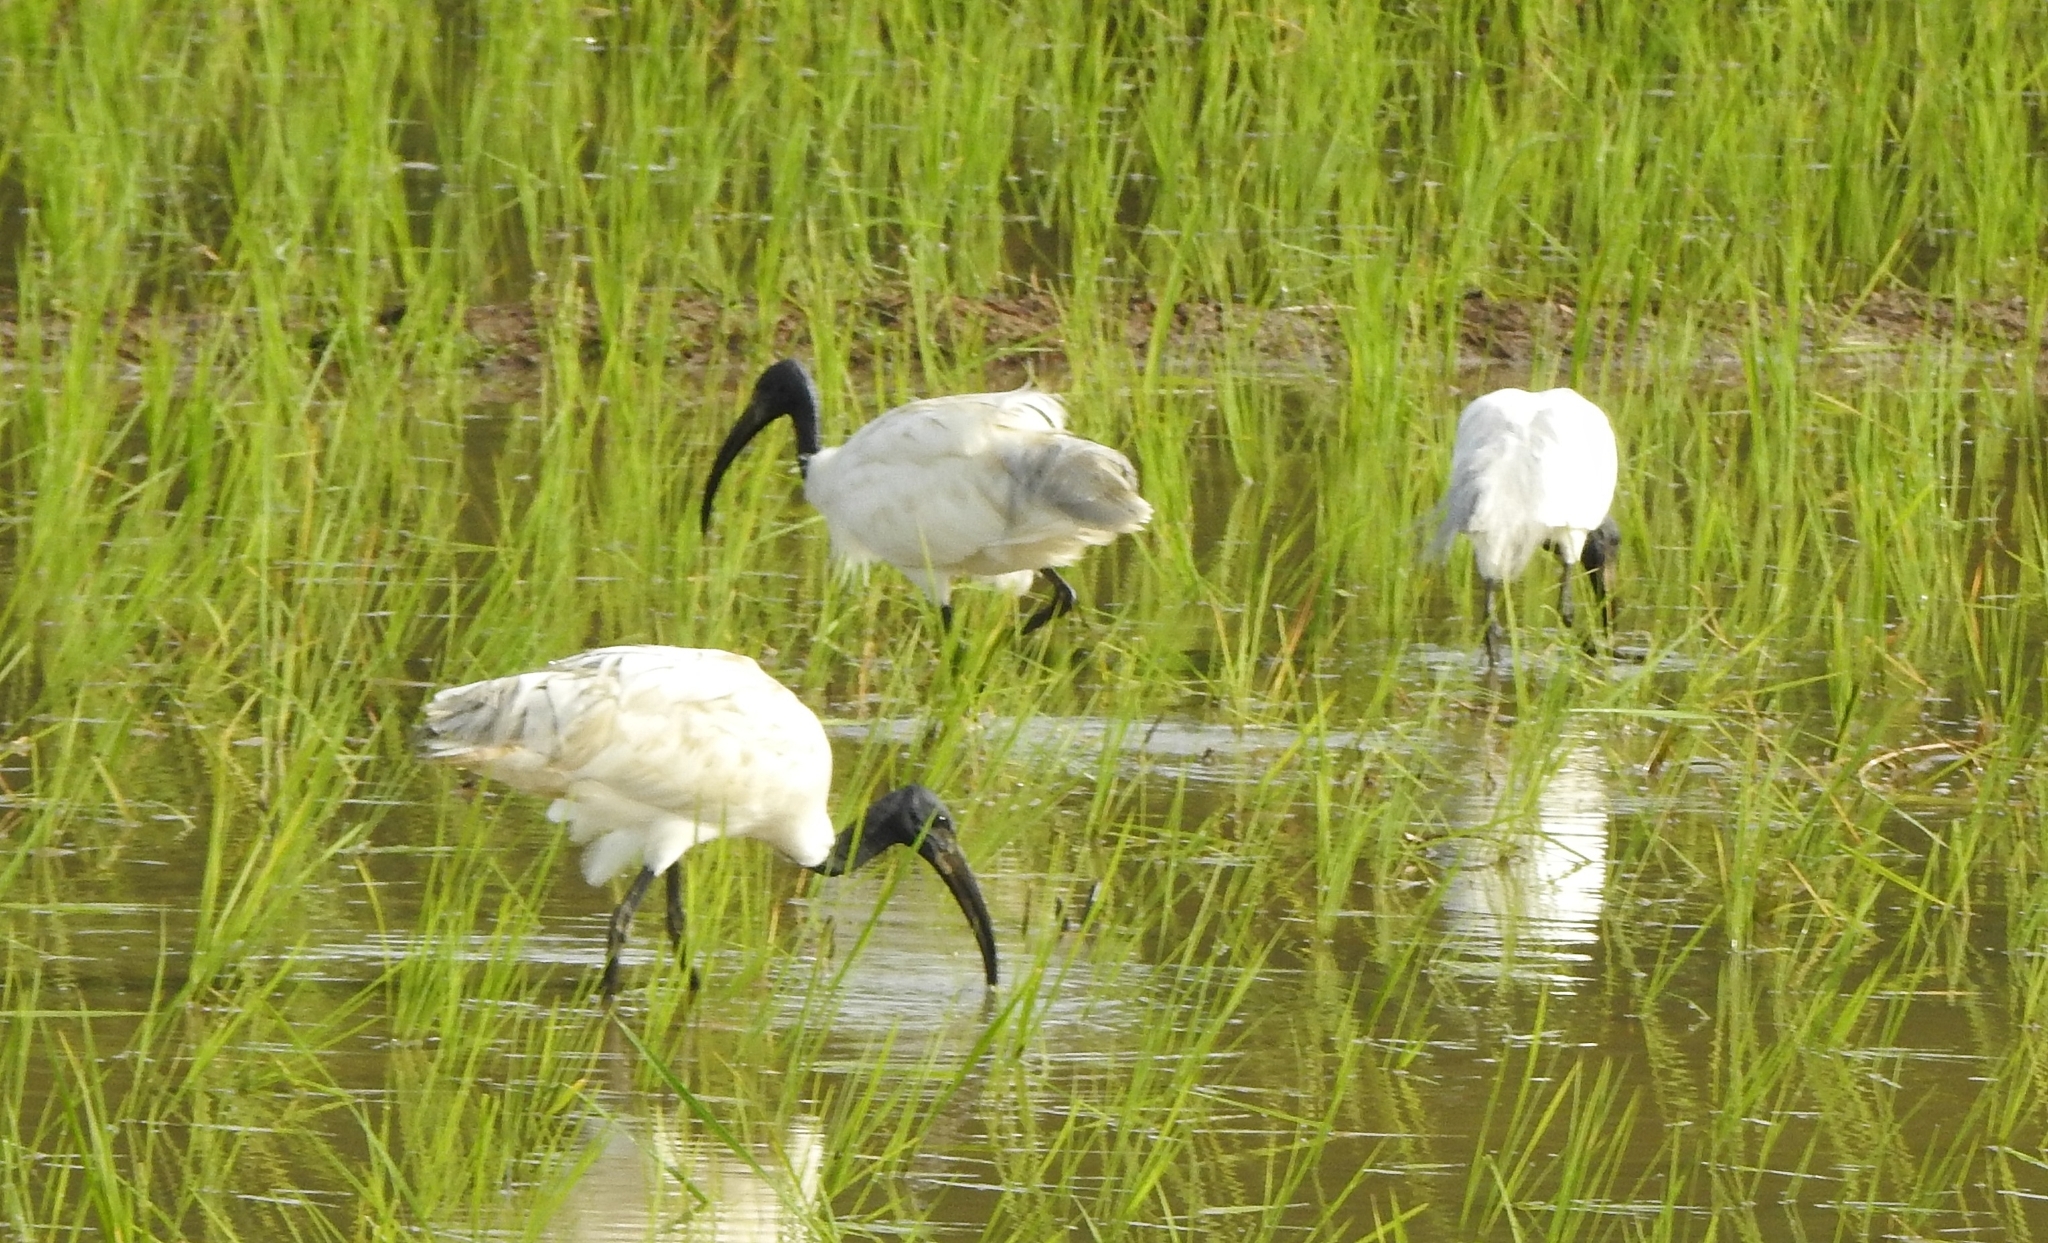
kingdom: Animalia
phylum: Chordata
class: Aves
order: Pelecaniformes
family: Threskiornithidae
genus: Threskiornis
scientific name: Threskiornis melanocephalus
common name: Black-headed ibis
